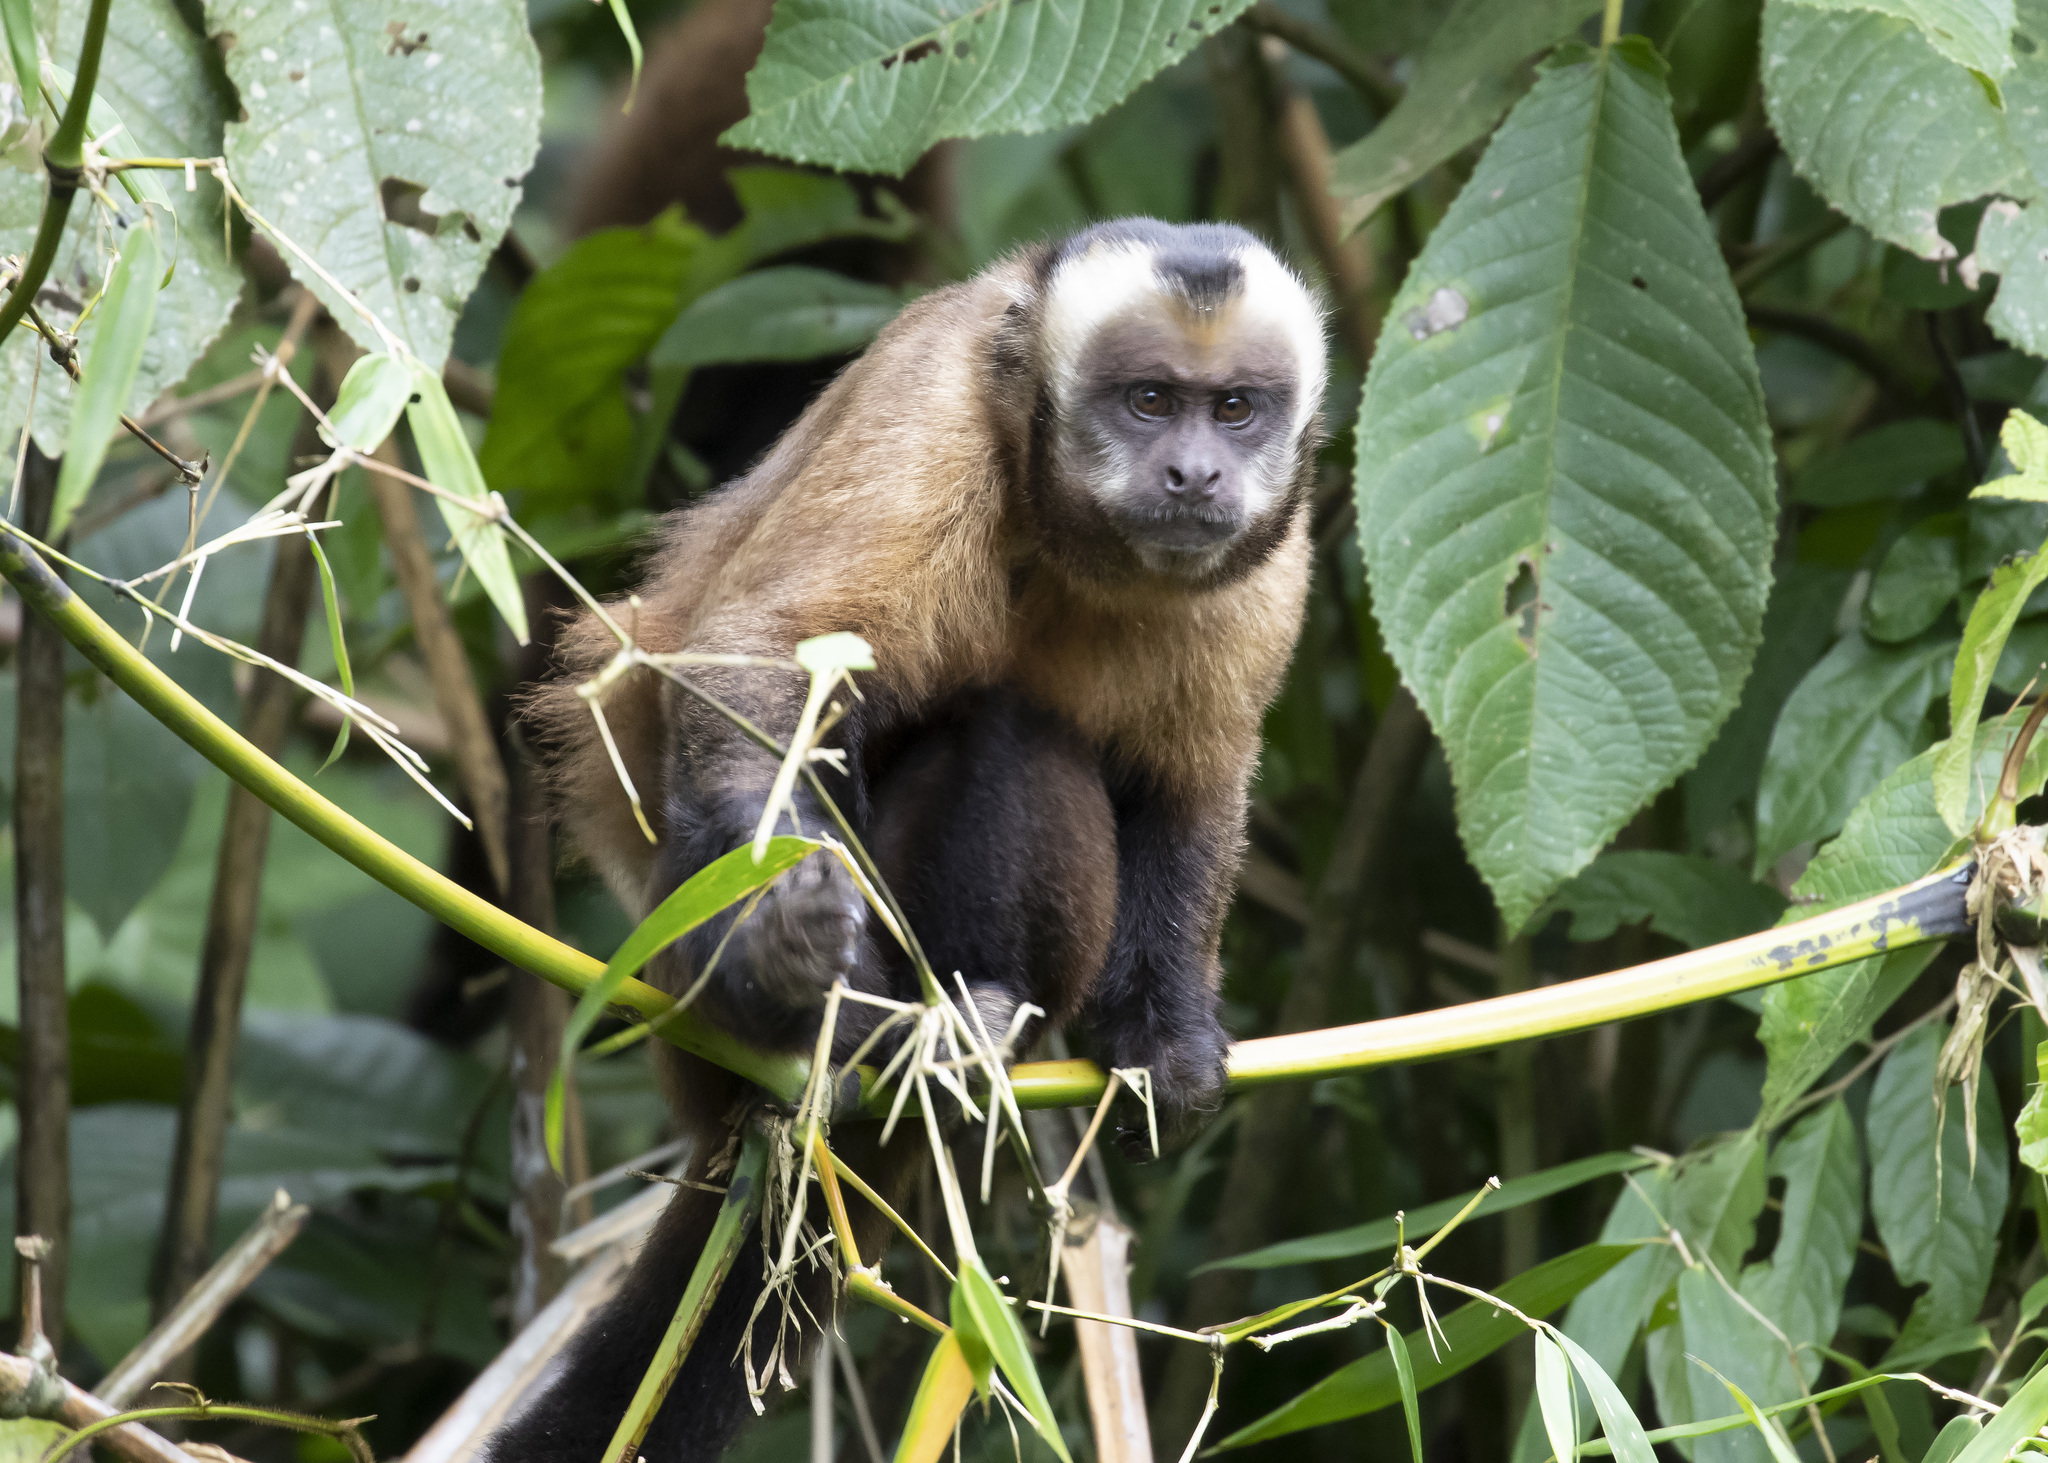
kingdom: Animalia
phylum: Chordata
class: Mammalia
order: Primates
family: Cebidae
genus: Sapajus
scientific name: Sapajus apella
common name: Tufted capuchin
